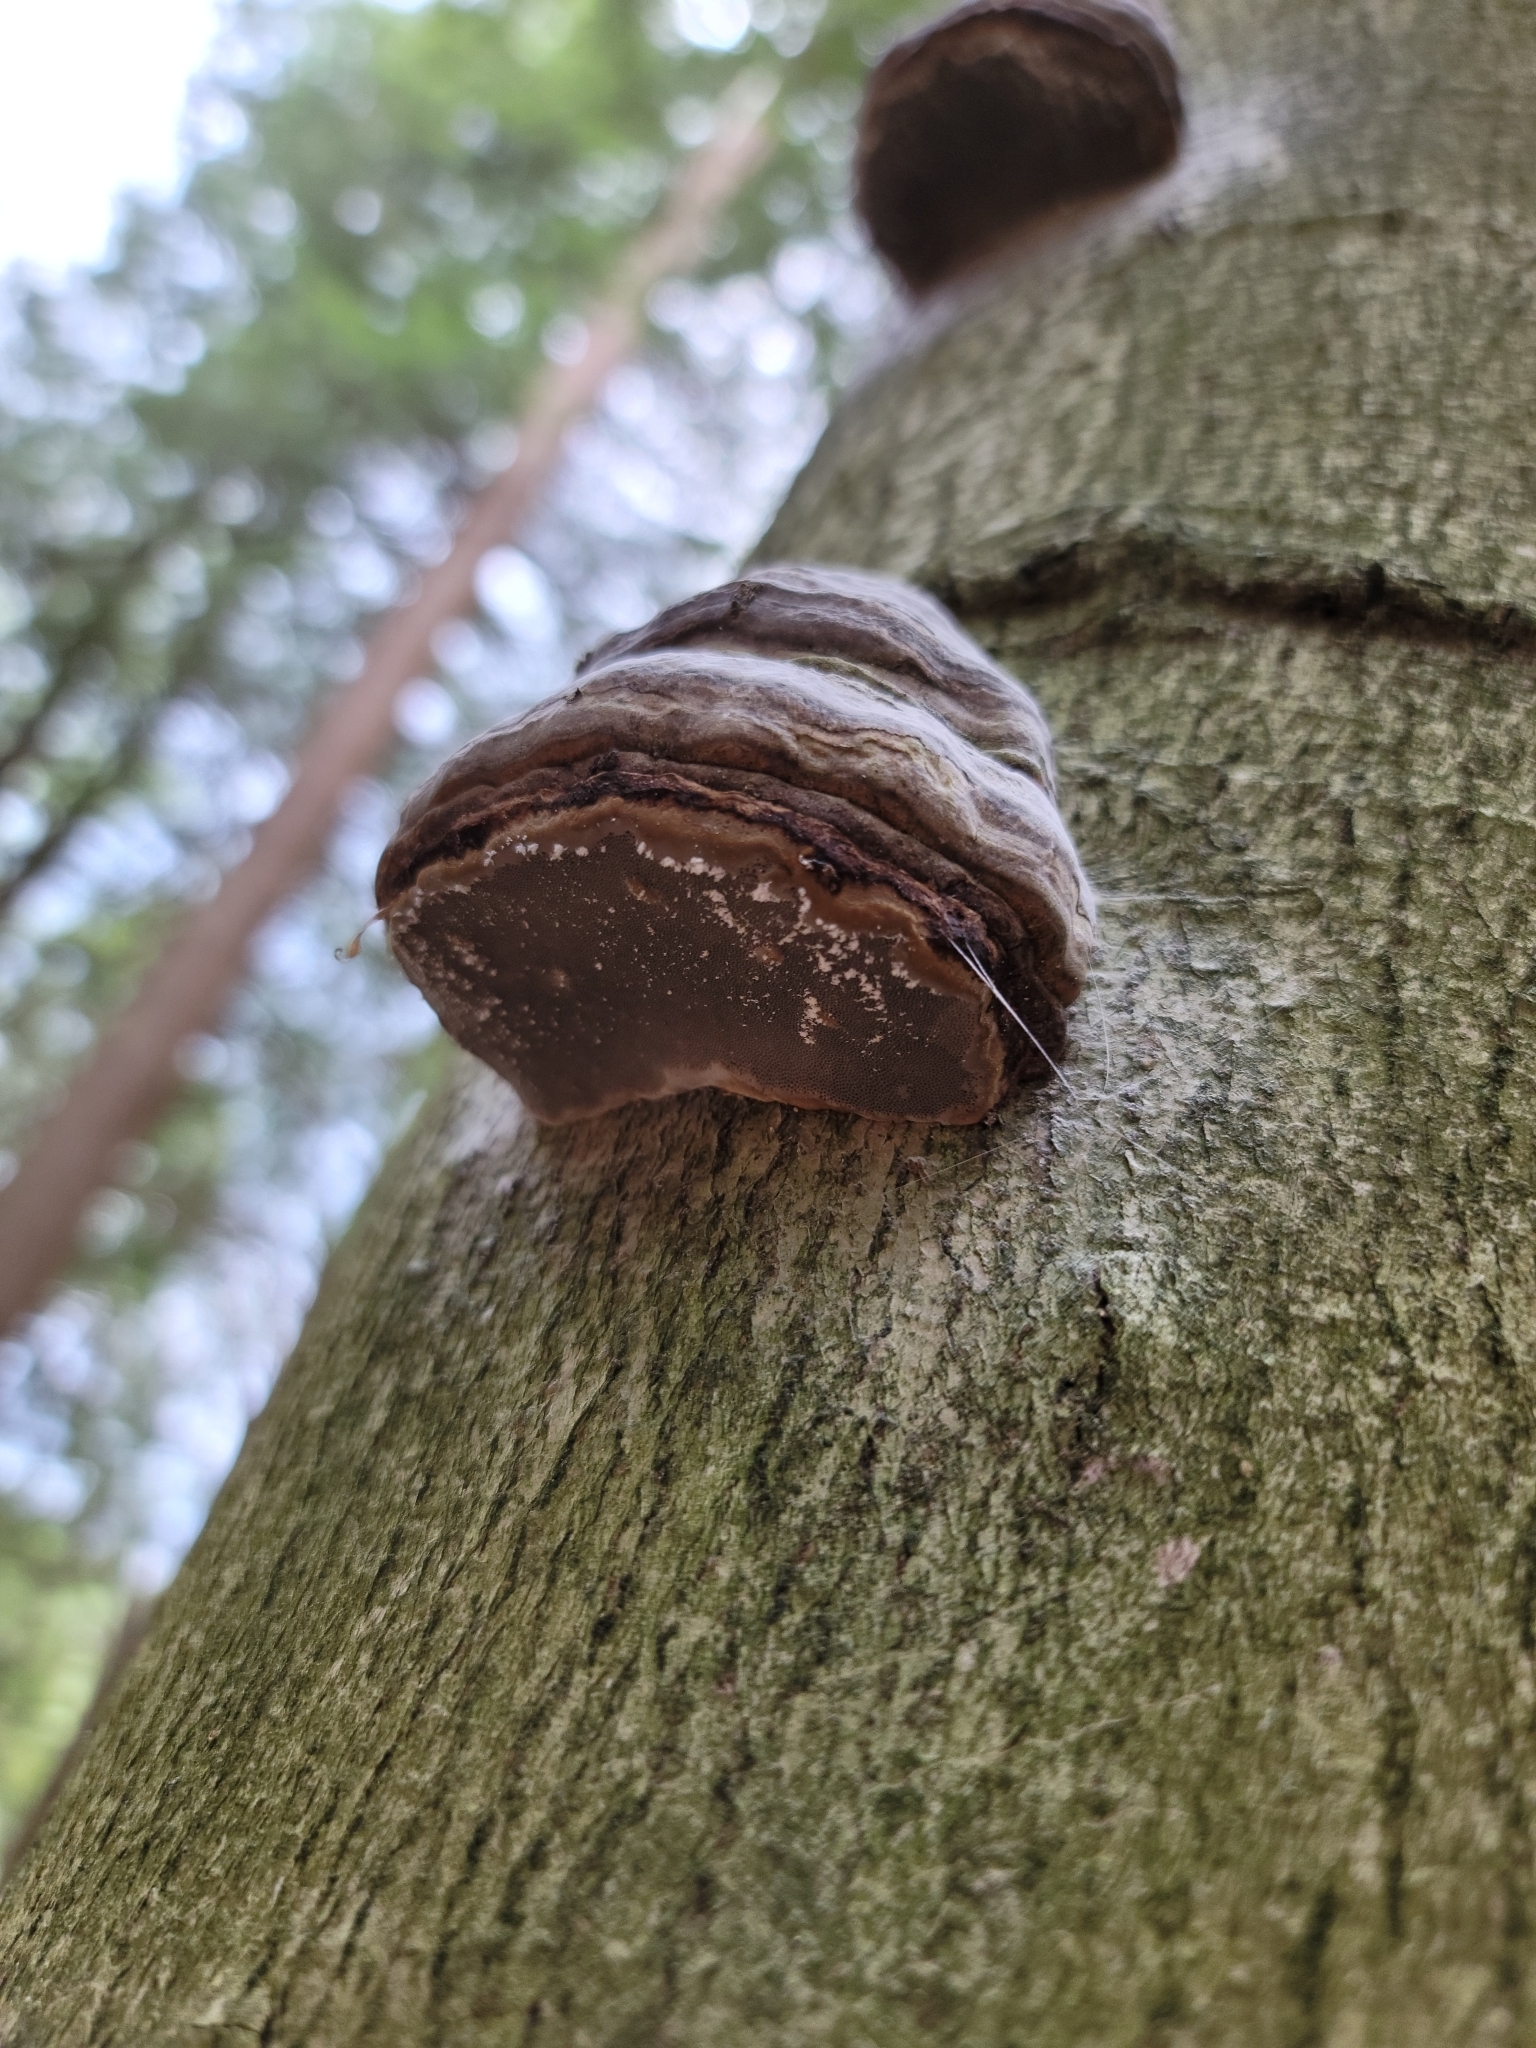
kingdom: Fungi
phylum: Basidiomycota
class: Agaricomycetes
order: Polyporales
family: Polyporaceae
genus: Fomes
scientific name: Fomes fomentarius
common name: Hoof fungus
